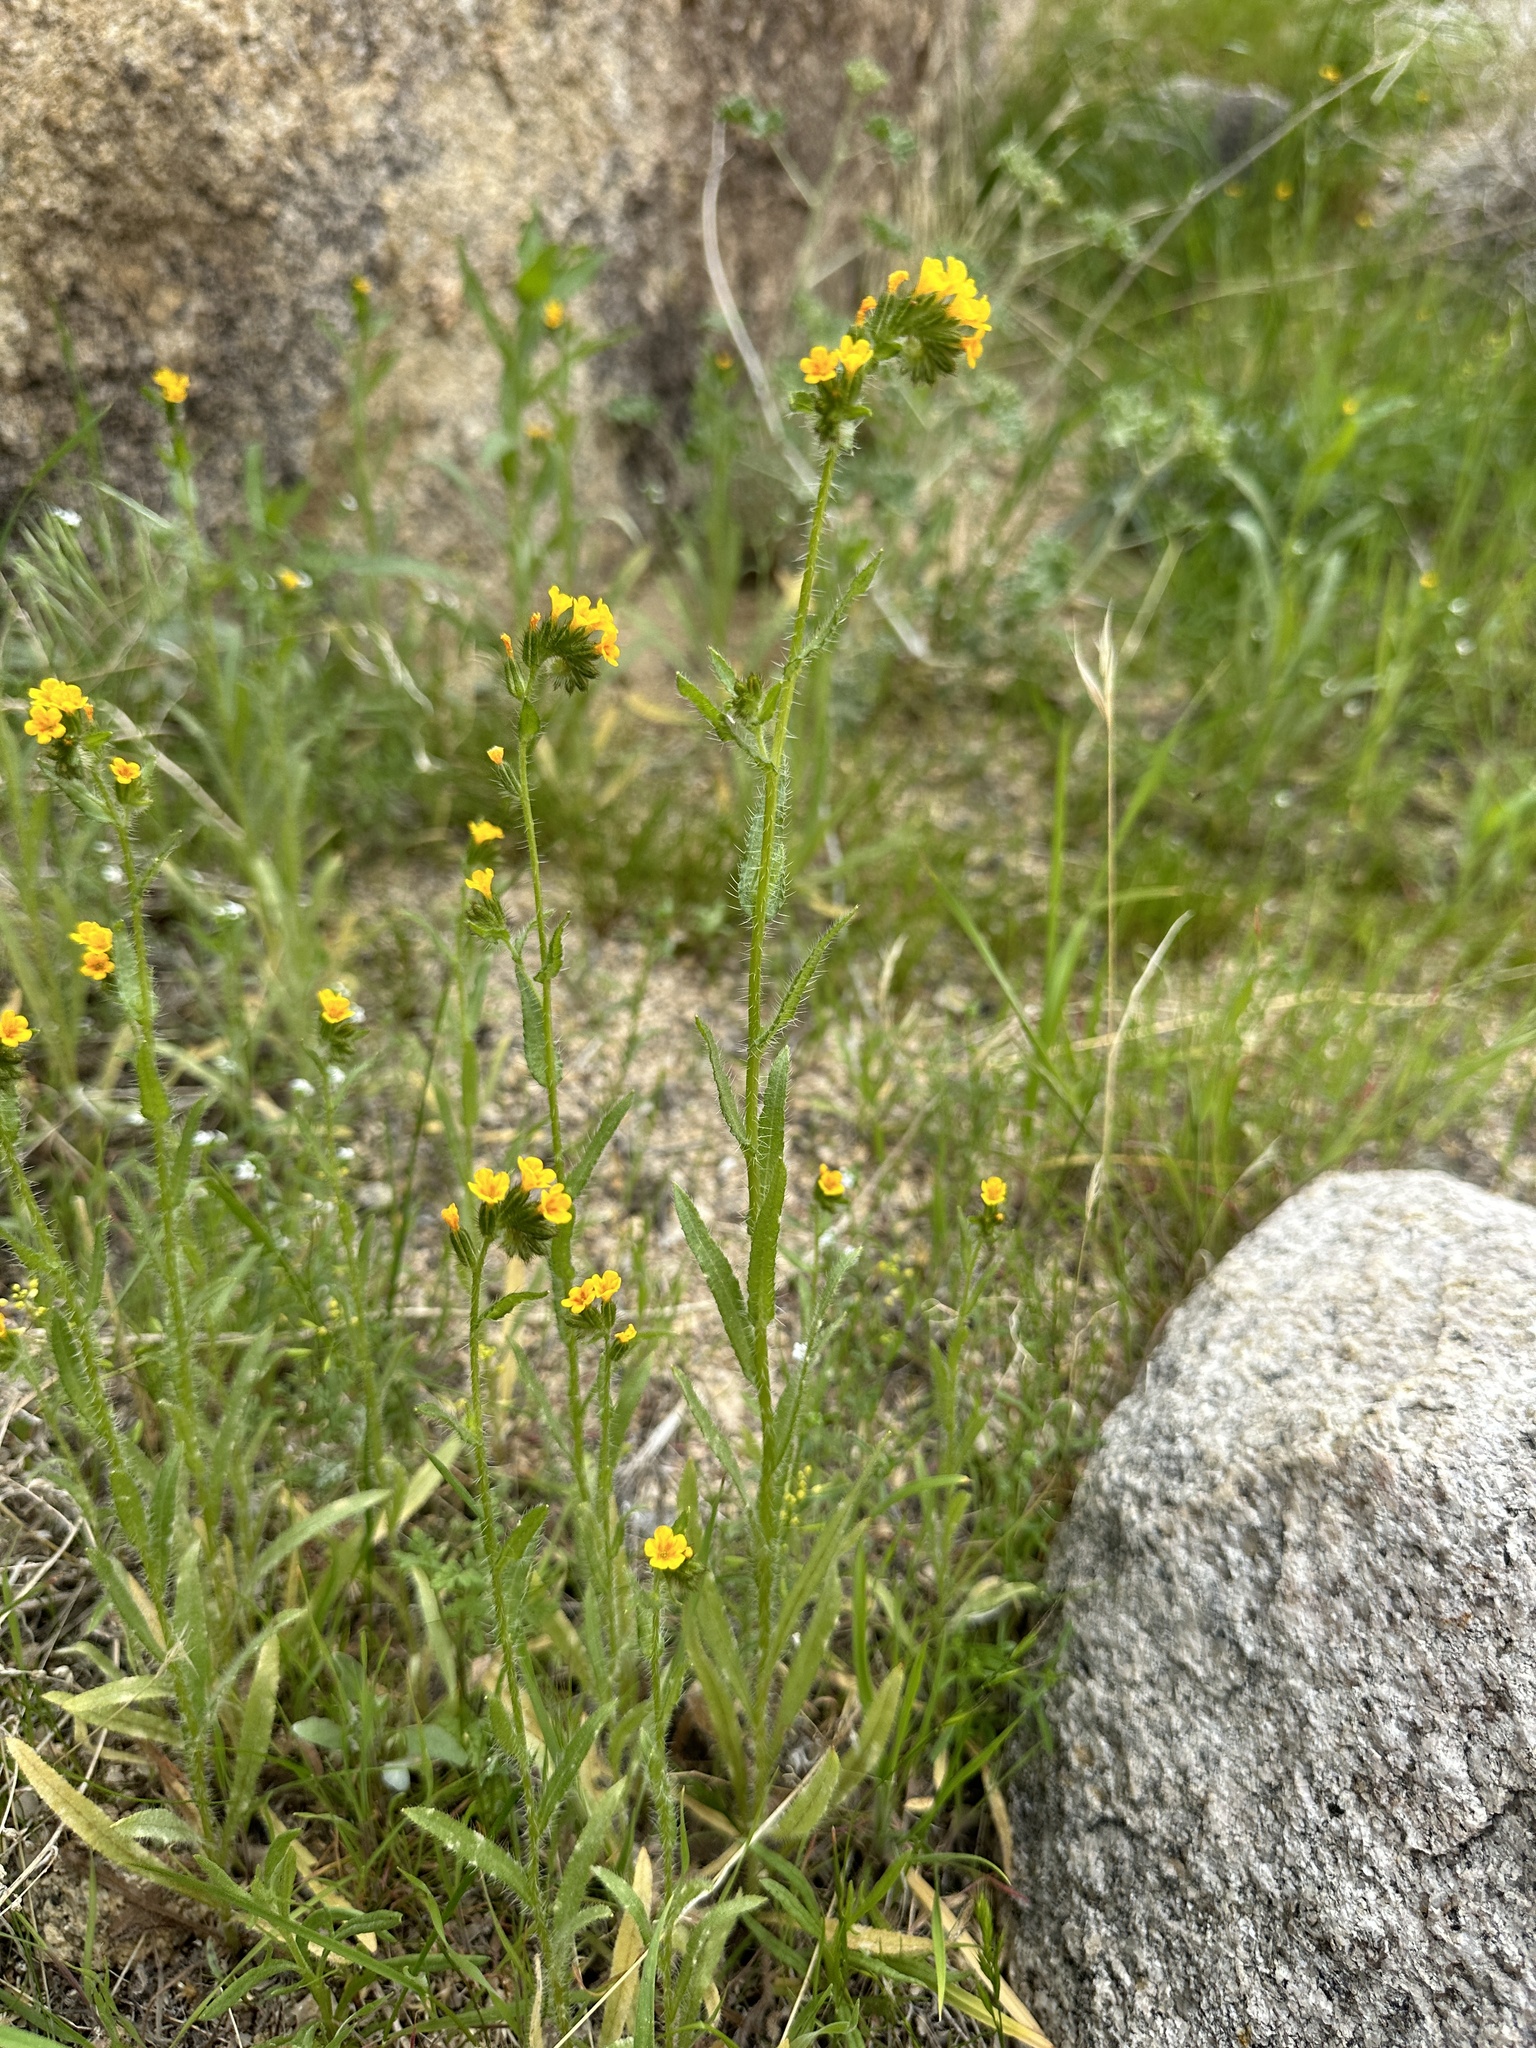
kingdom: Plantae
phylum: Tracheophyta
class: Magnoliopsida
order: Boraginales
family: Boraginaceae
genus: Amsinckia
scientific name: Amsinckia menziesii
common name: Menzies' fiddleneck
